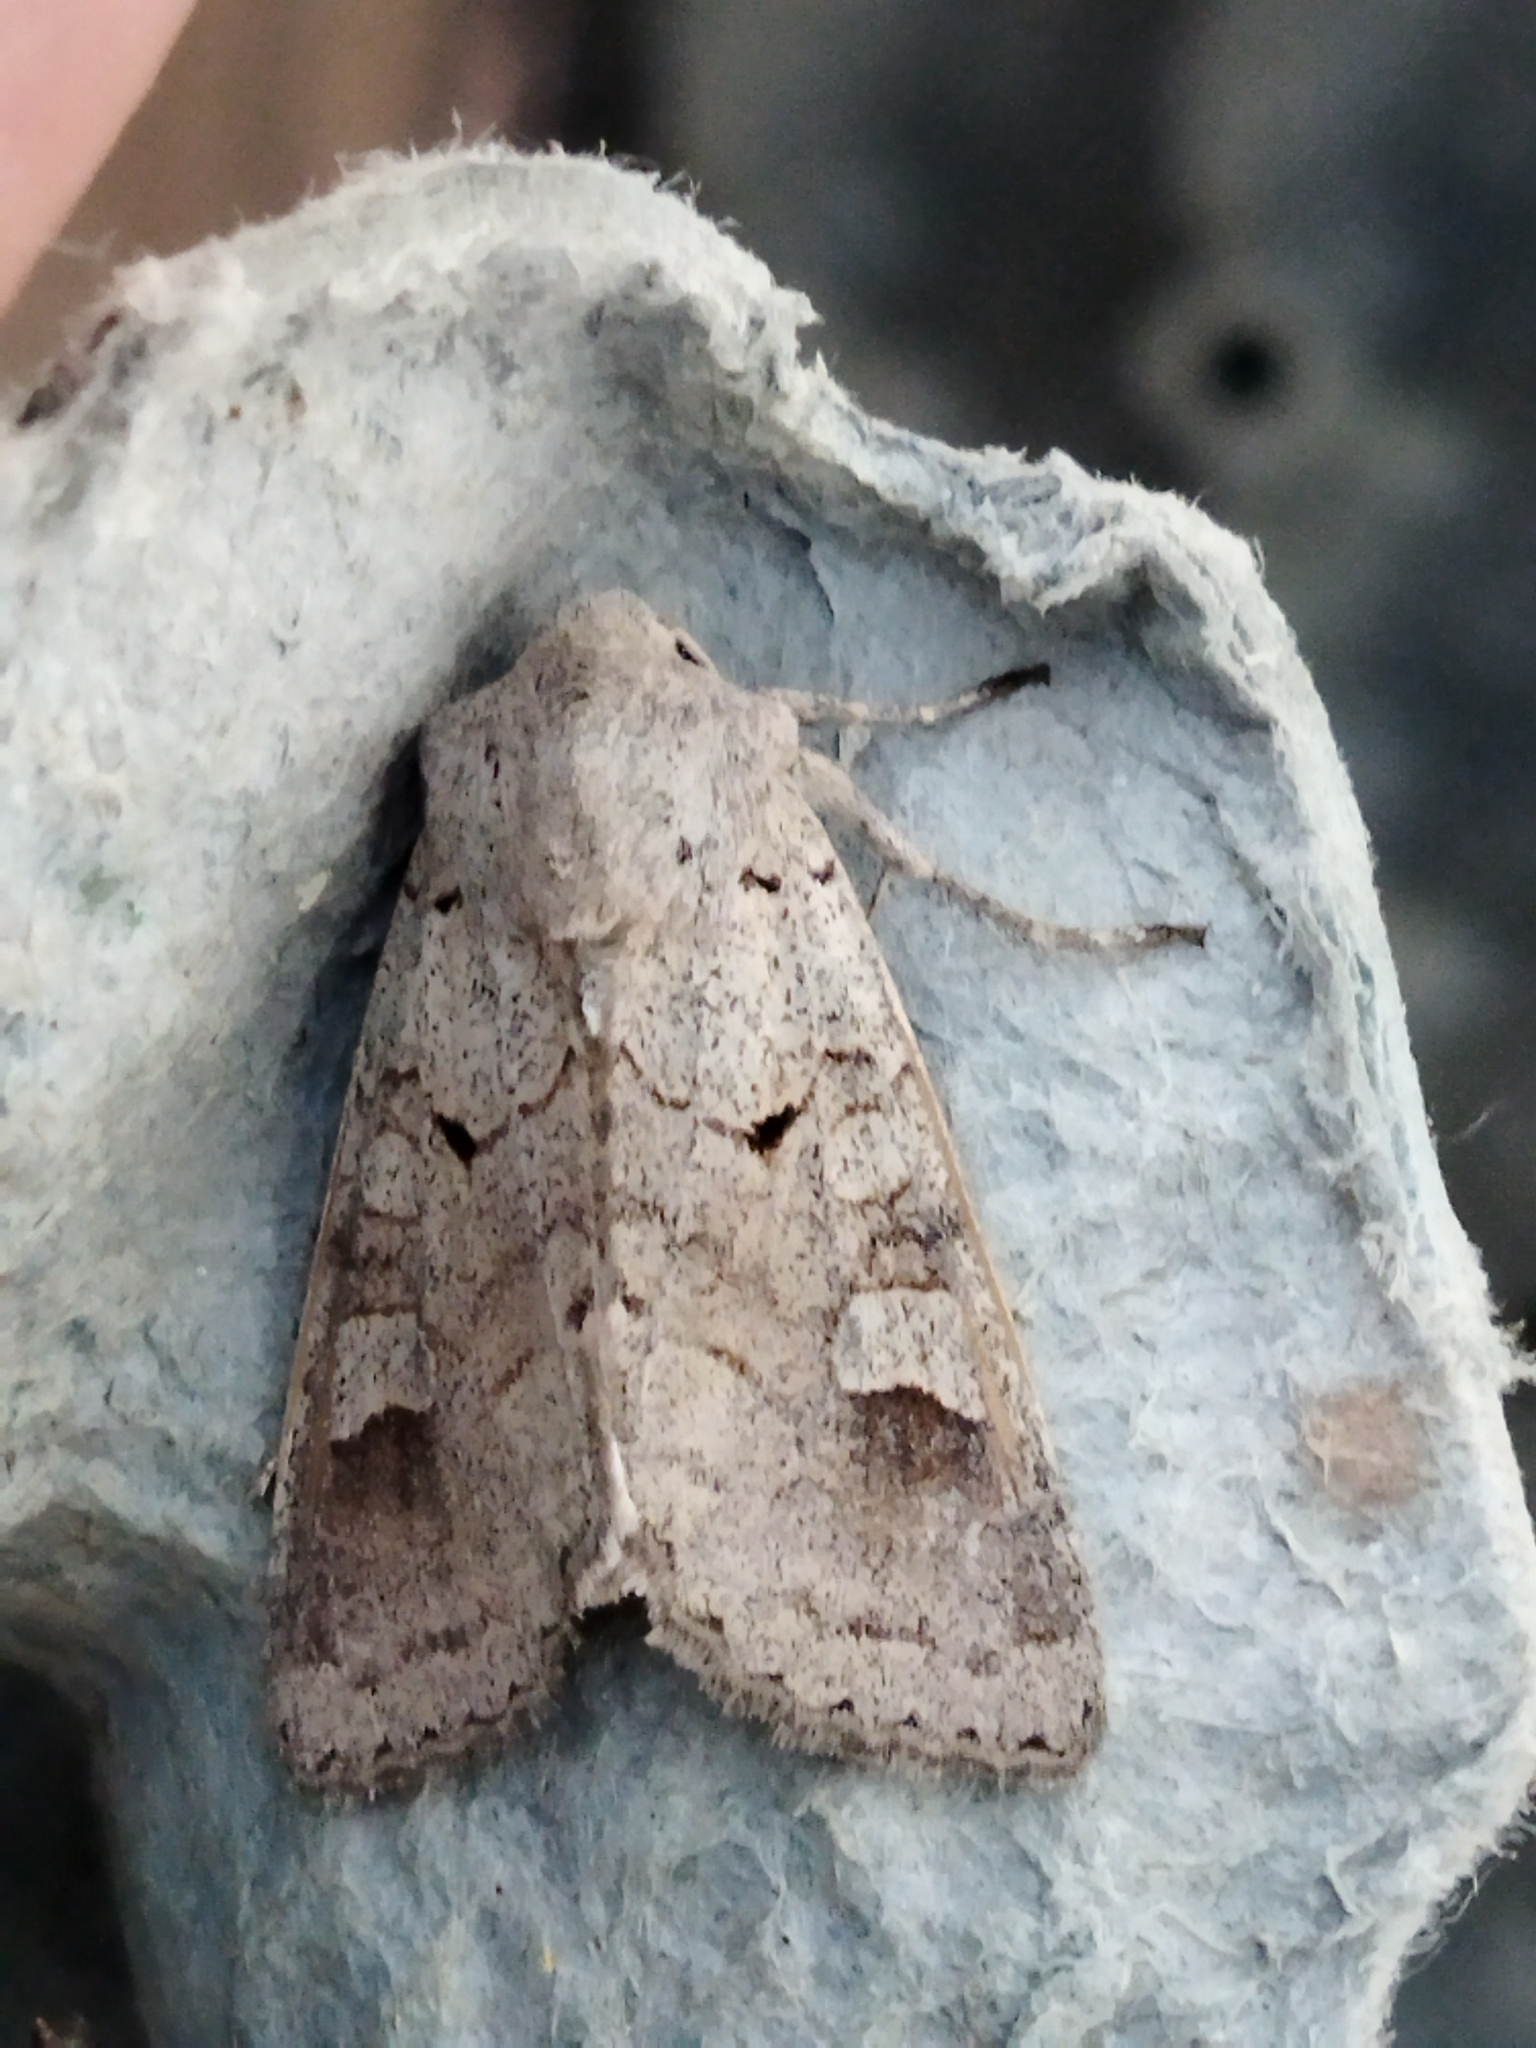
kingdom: Animalia
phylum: Arthropoda
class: Insecta
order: Lepidoptera
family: Noctuidae
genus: Ammoconia
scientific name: Ammoconia caecimacula
